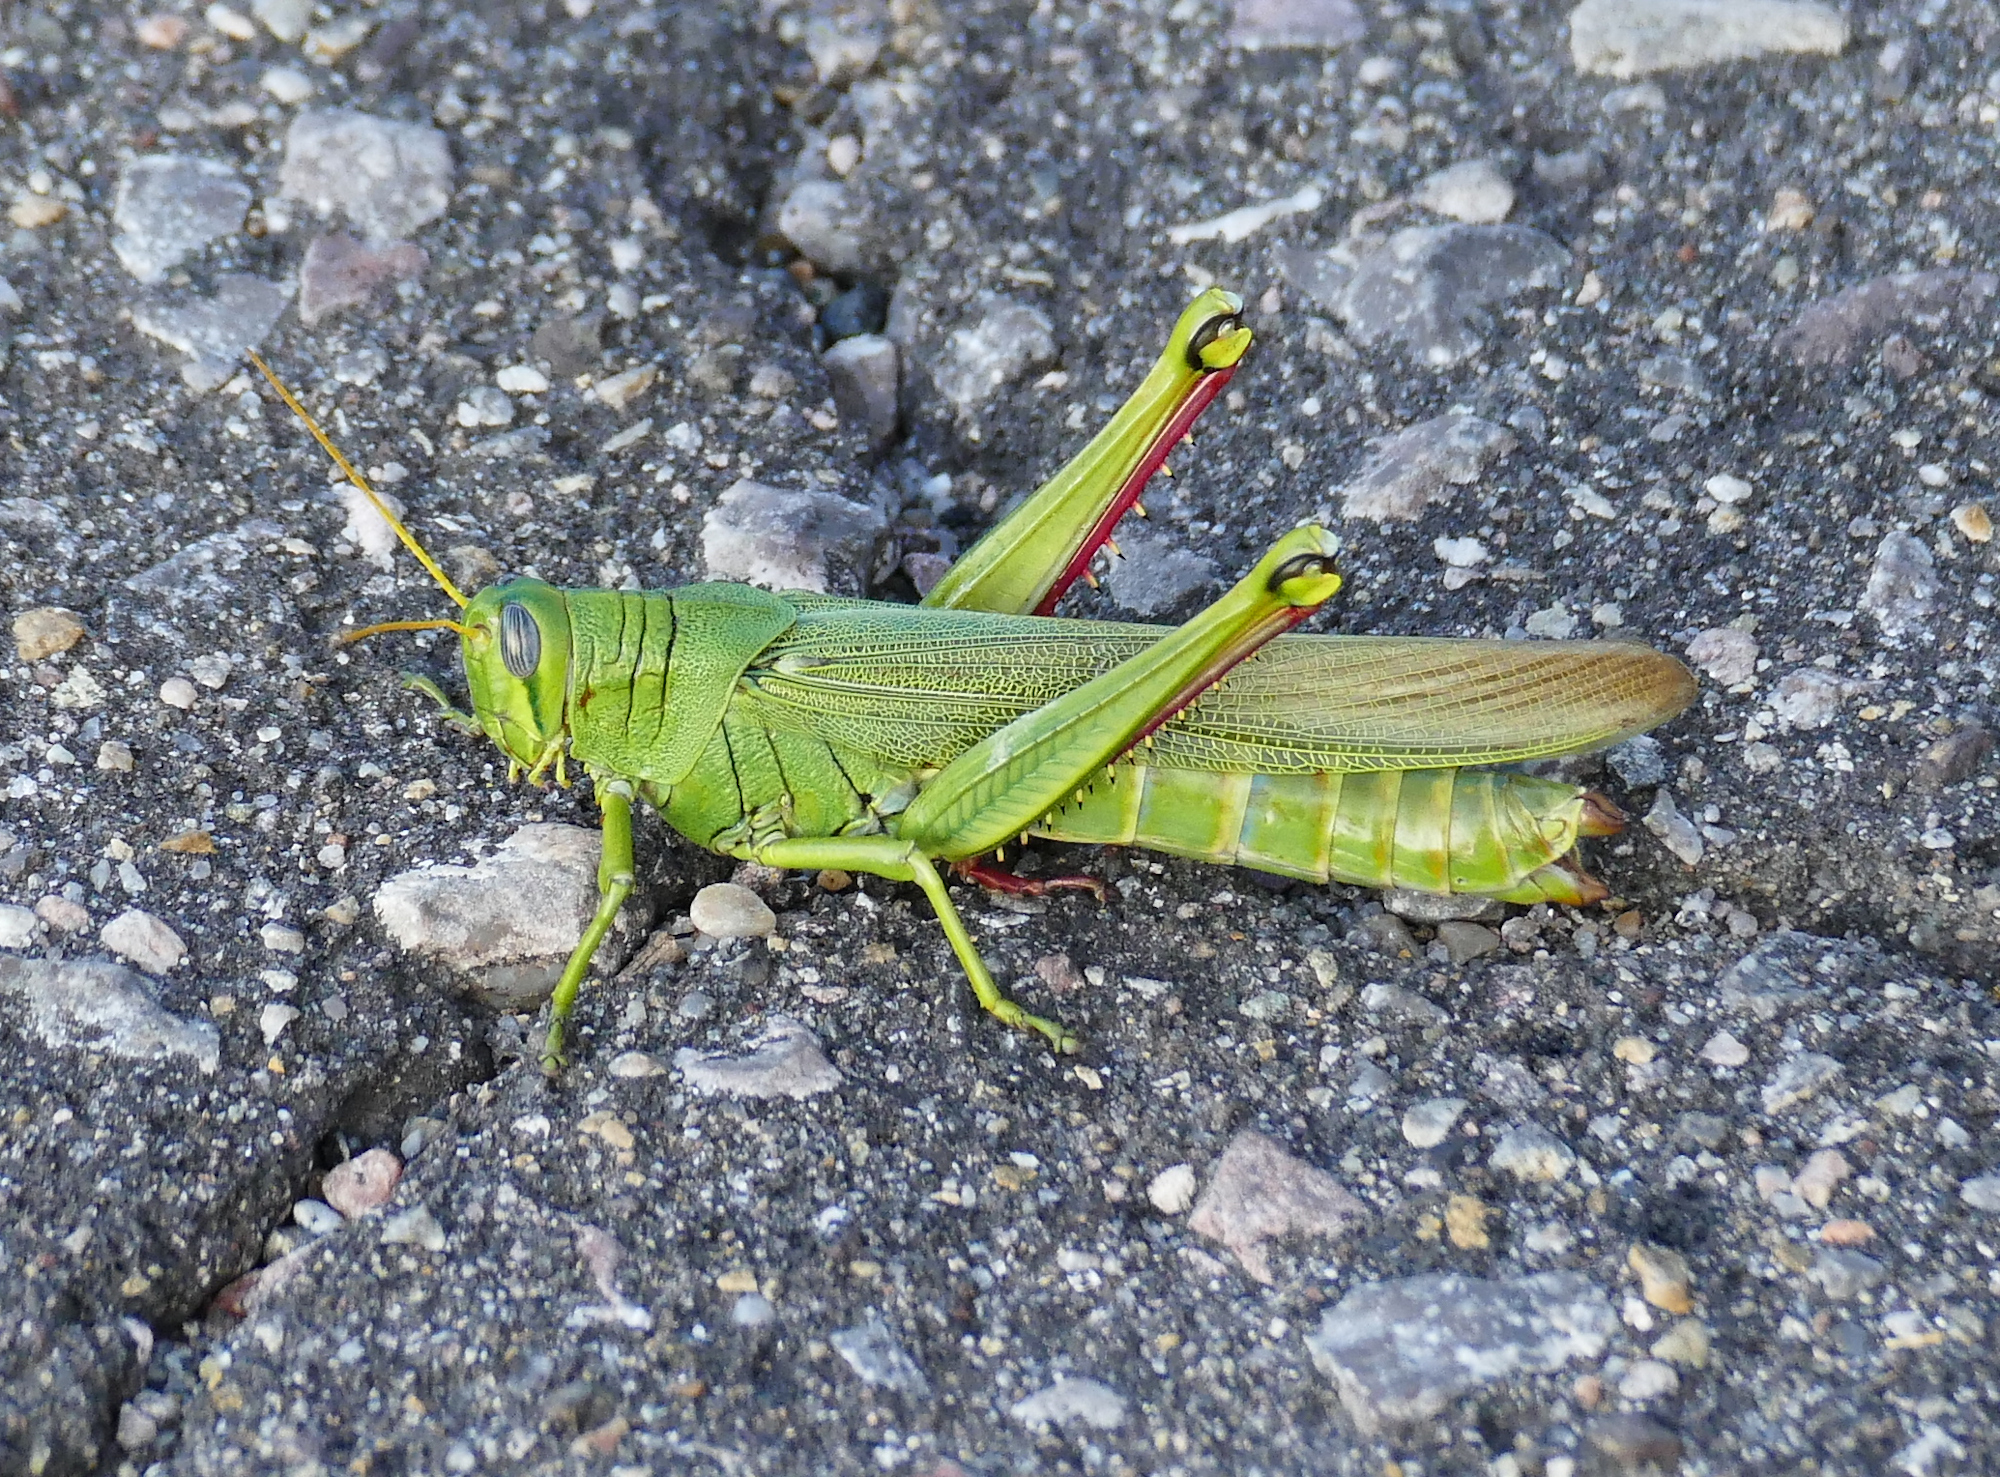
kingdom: Animalia
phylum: Arthropoda
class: Insecta
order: Orthoptera
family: Acrididae
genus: Schistocerca
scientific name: Schistocerca shoshone
